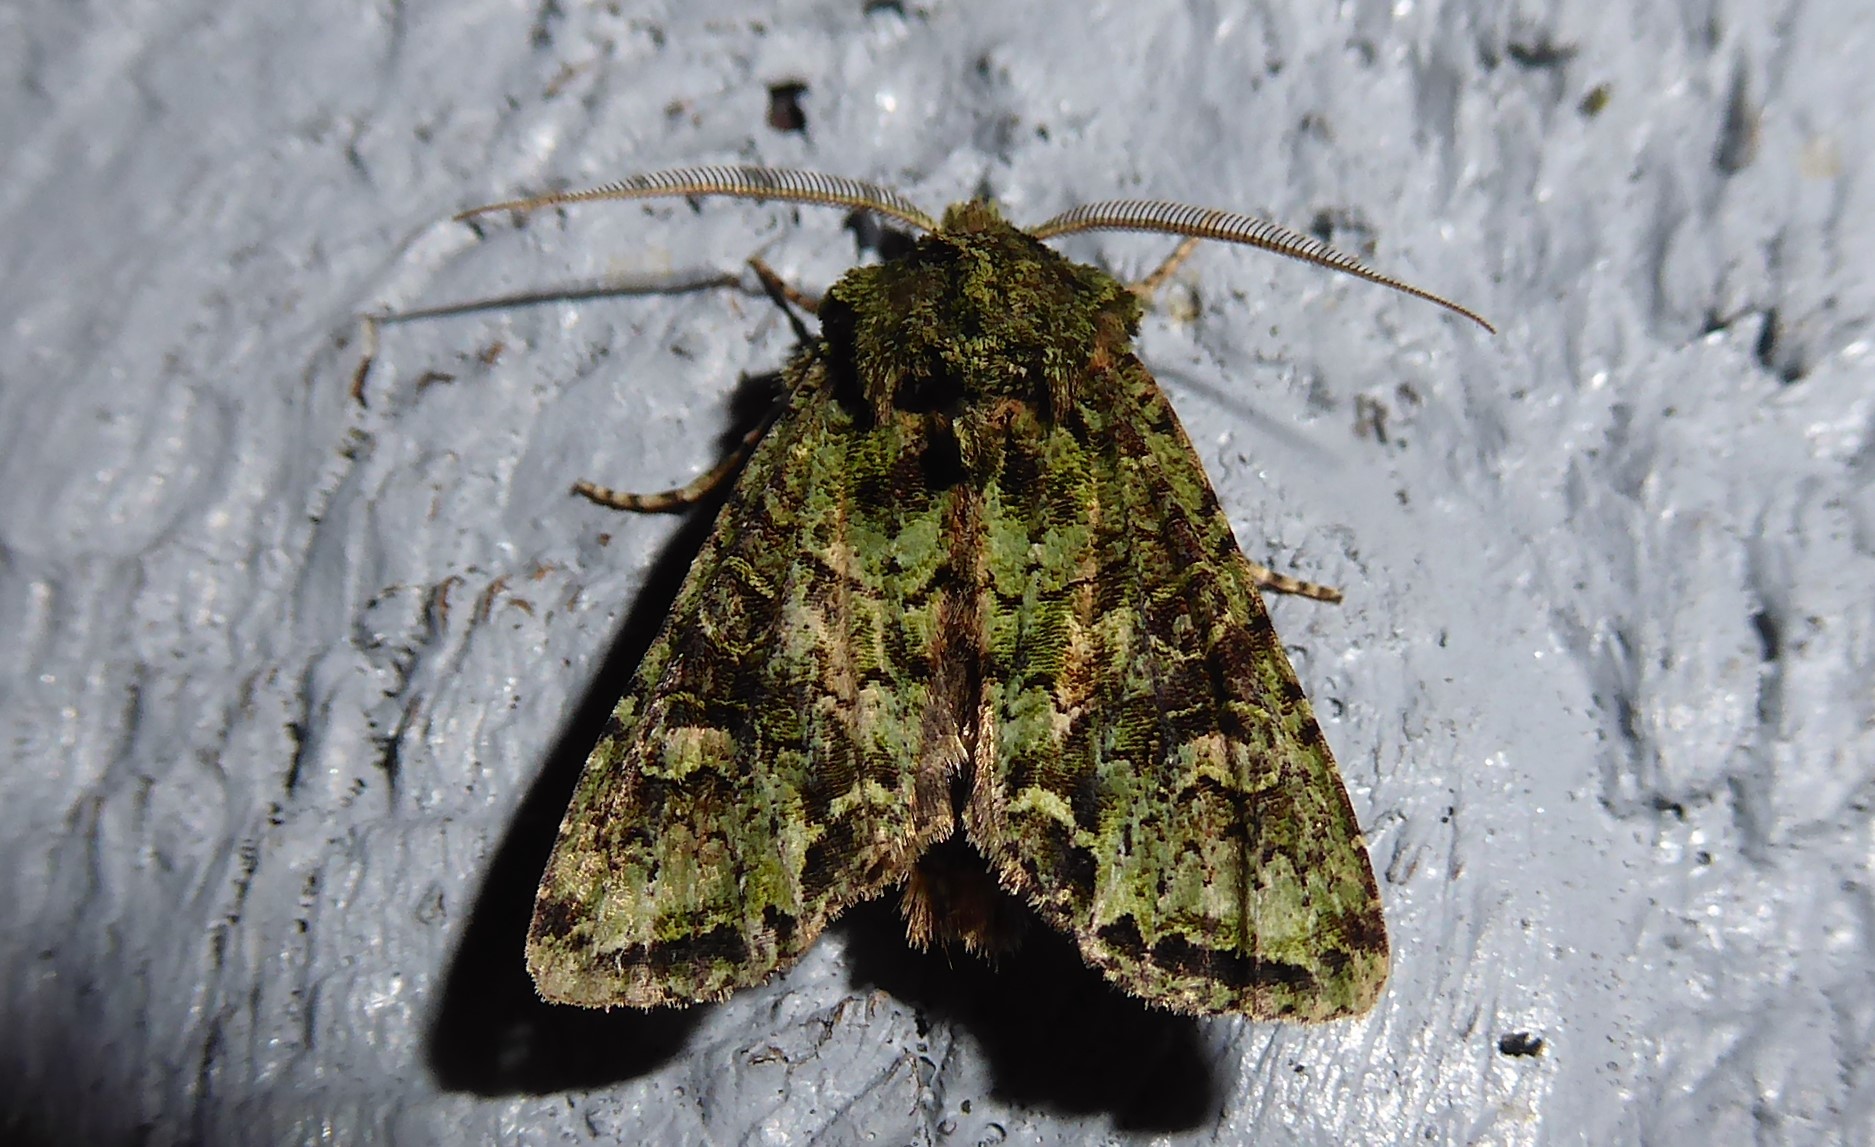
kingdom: Animalia
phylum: Arthropoda
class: Insecta
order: Lepidoptera
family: Noctuidae
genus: Ichneutica
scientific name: Ichneutica
